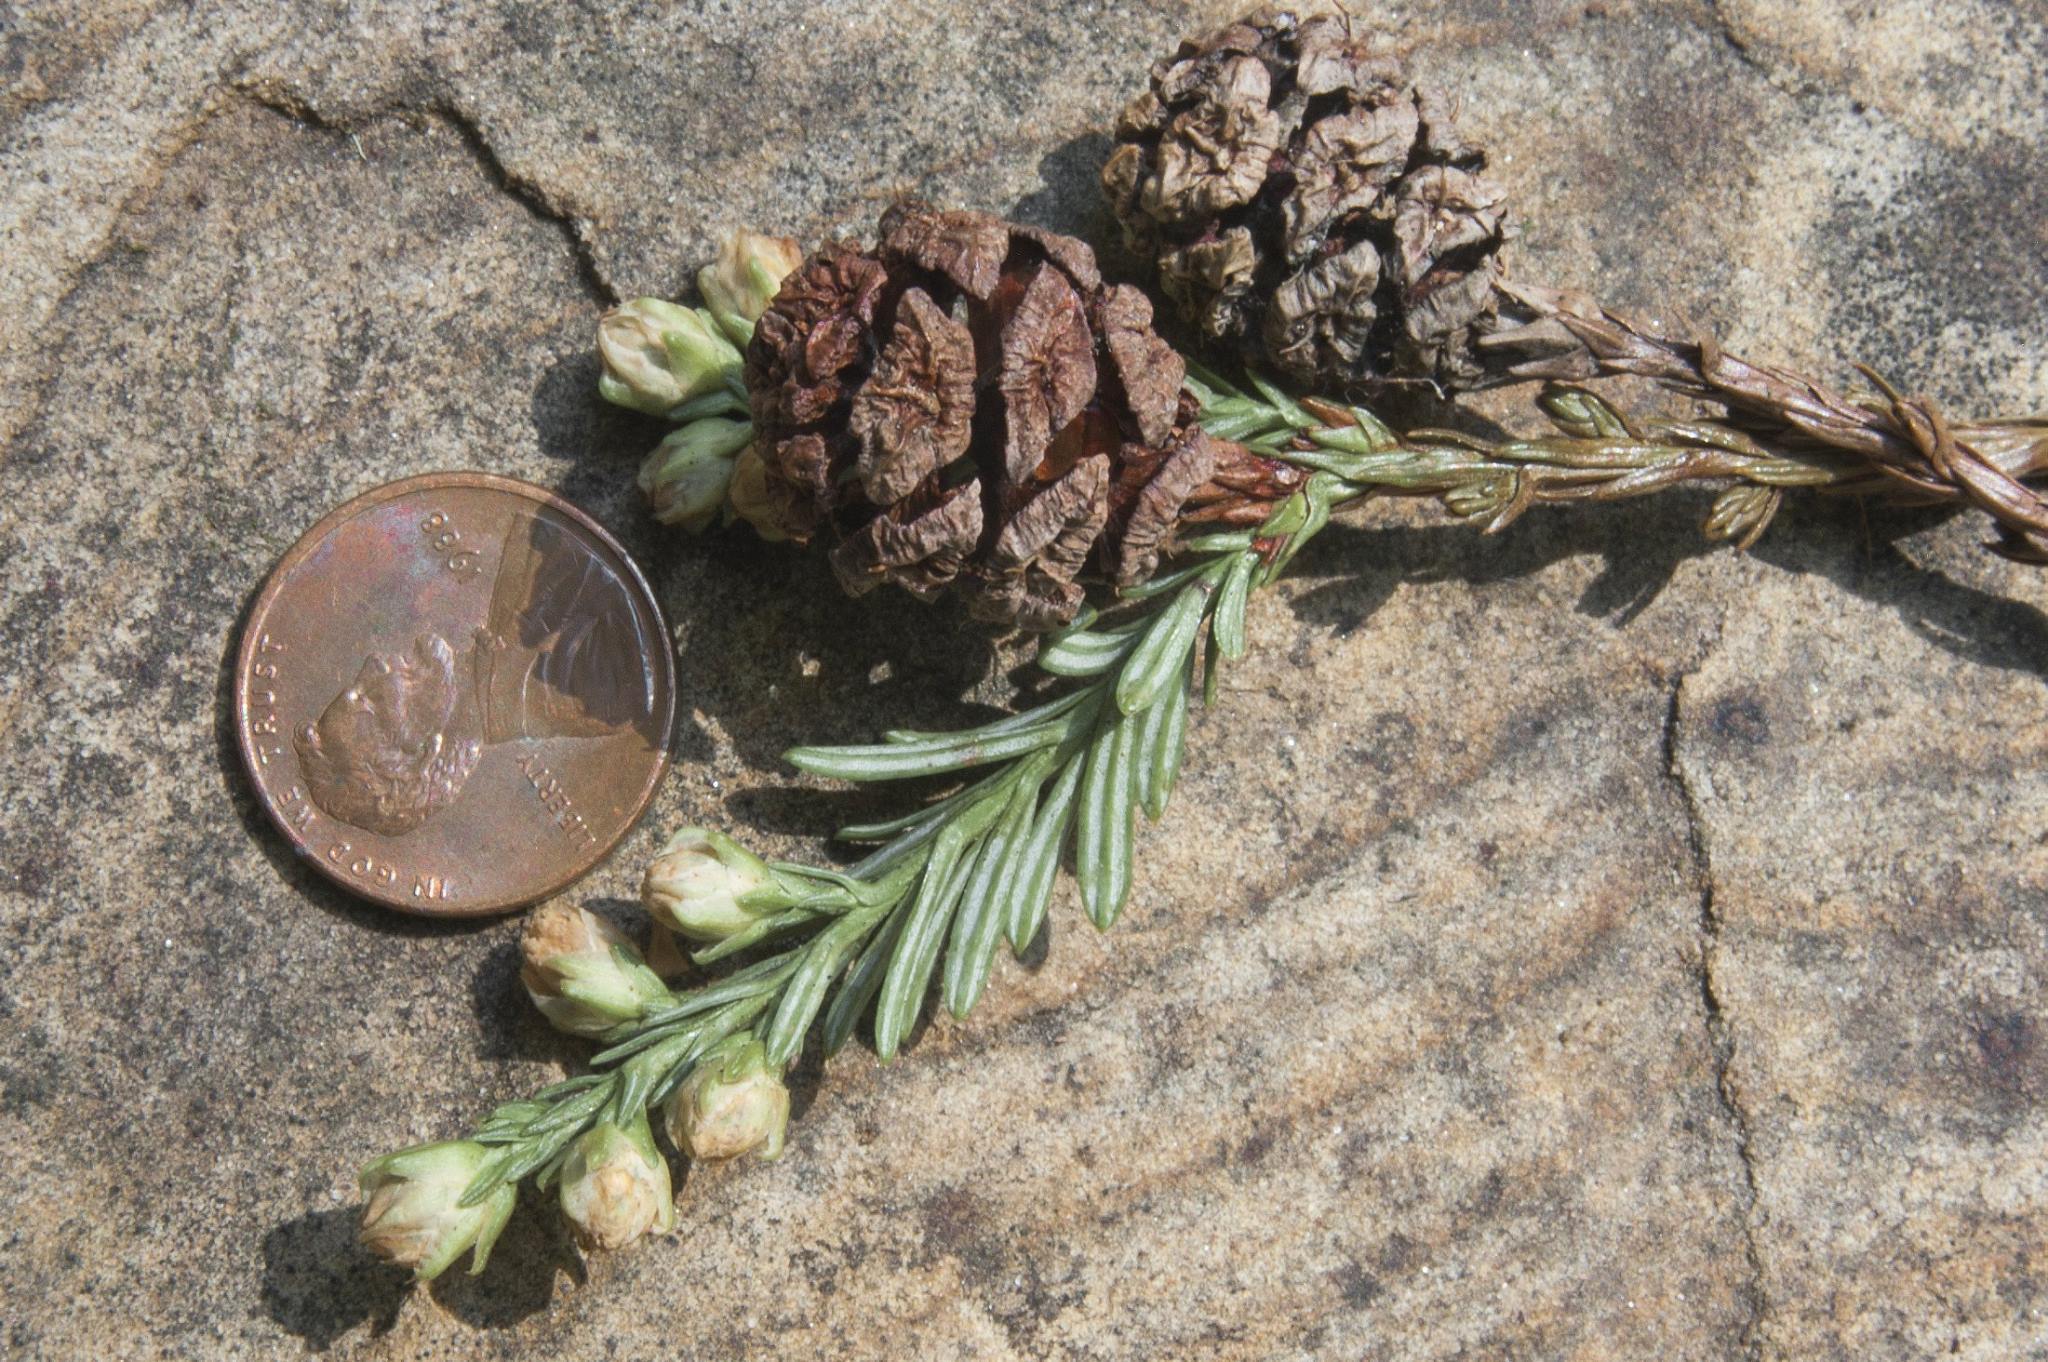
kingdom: Plantae
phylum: Tracheophyta
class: Pinopsida
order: Pinales
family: Cupressaceae
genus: Sequoia
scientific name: Sequoia sempervirens
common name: Coast redwood
